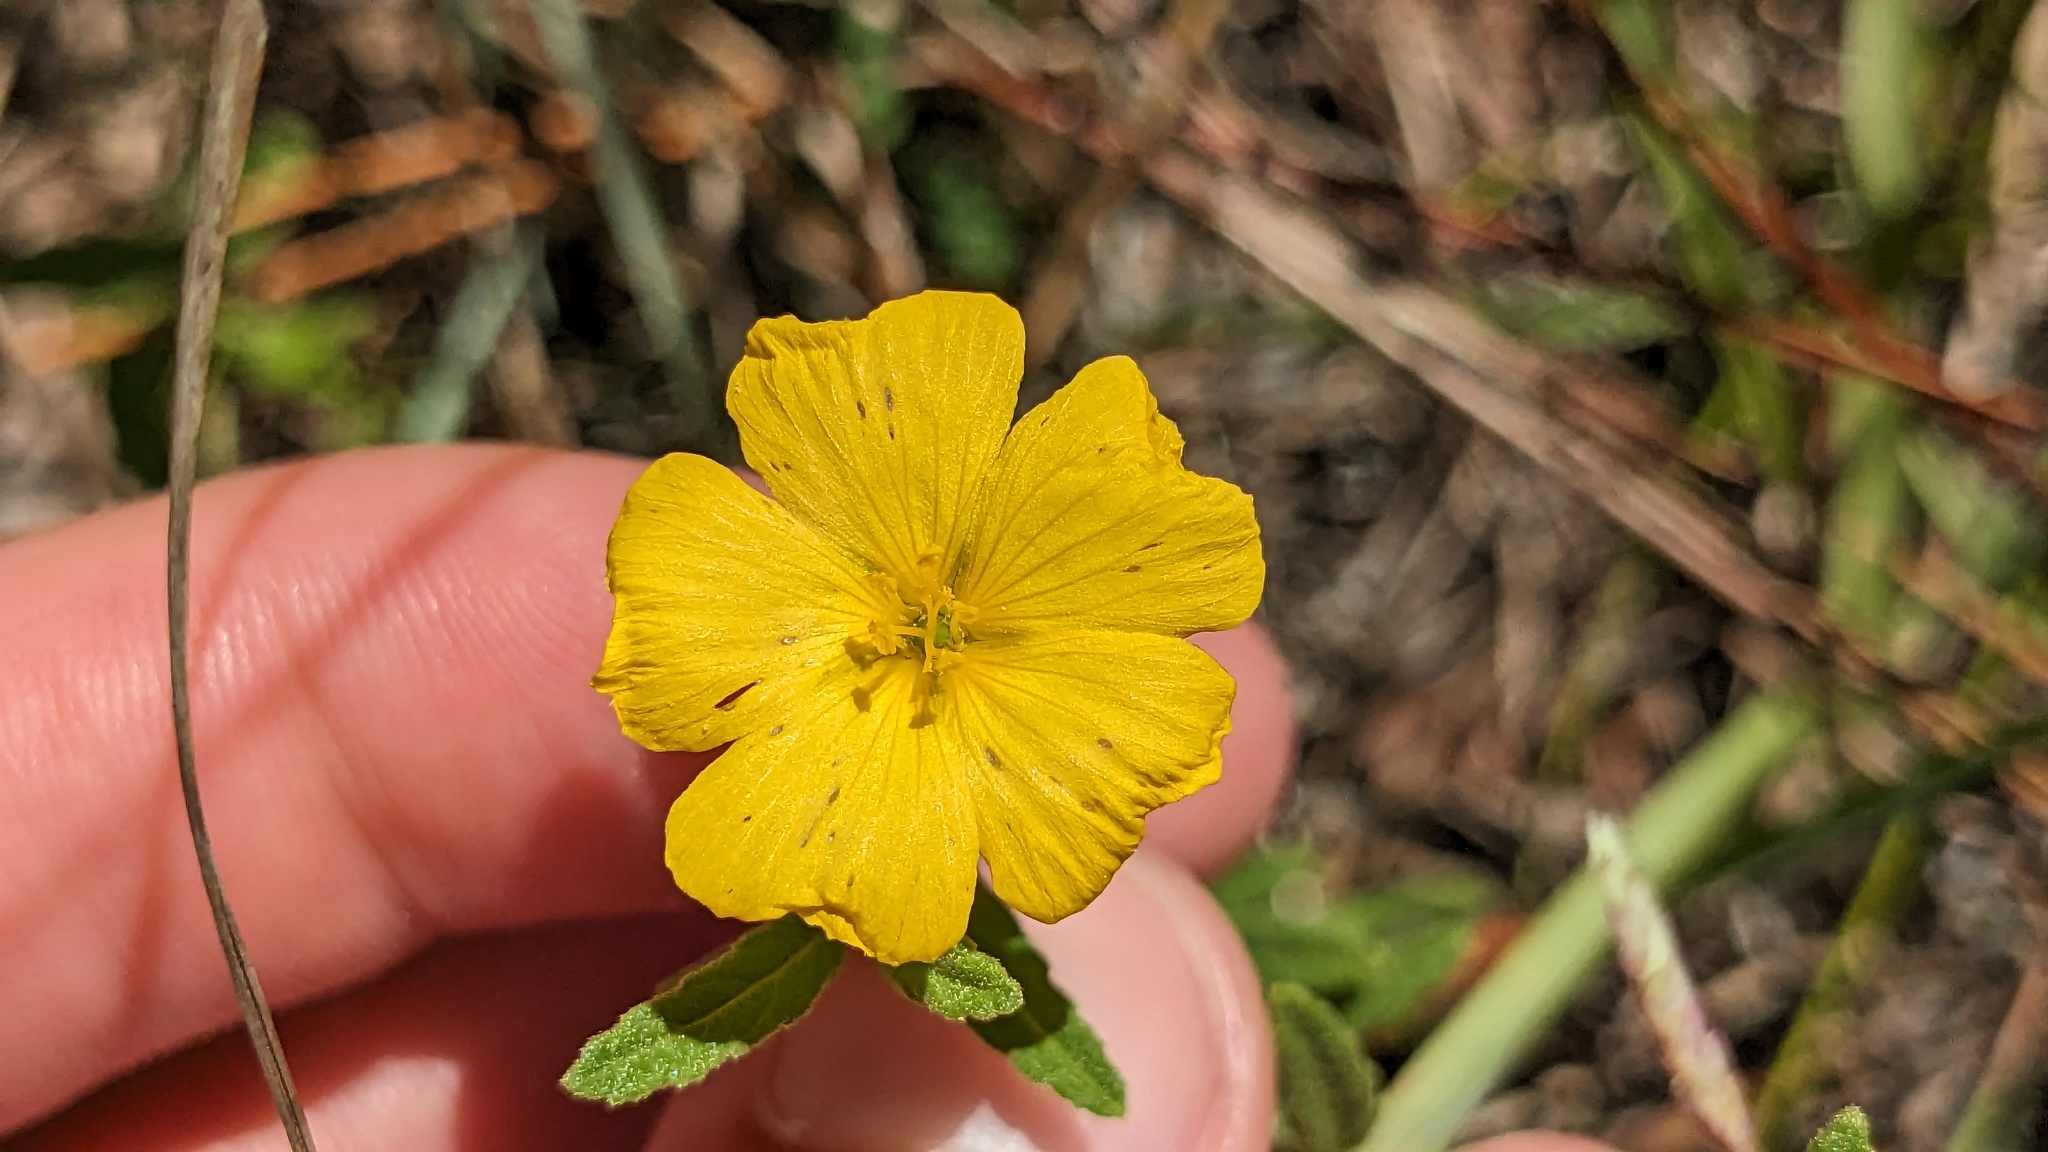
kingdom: Plantae
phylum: Tracheophyta
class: Magnoliopsida
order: Malpighiales
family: Turneraceae
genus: Piriqueta
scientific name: Piriqueta cistoides
